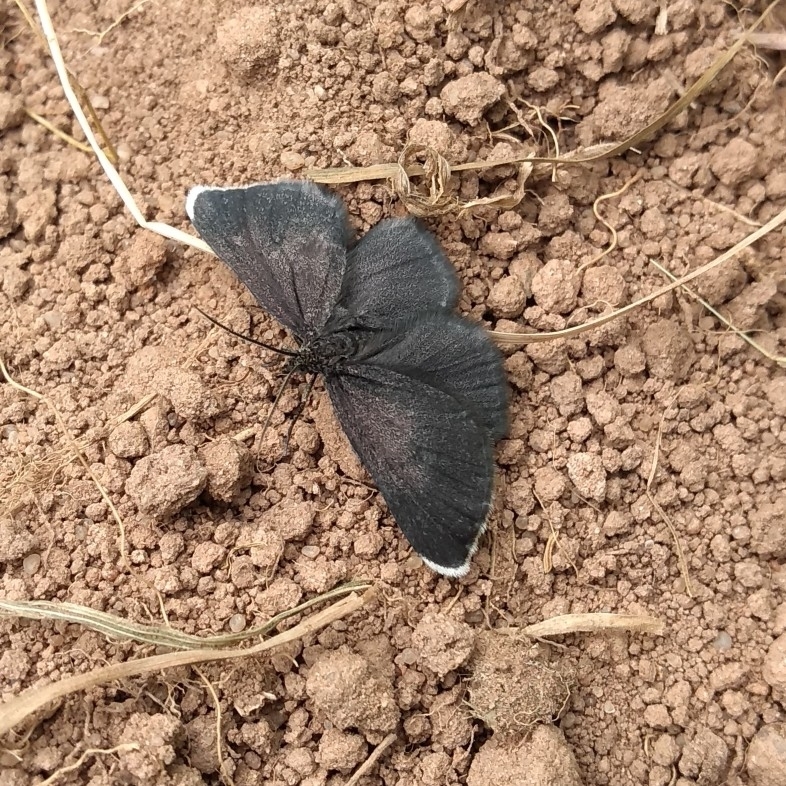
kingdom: Animalia
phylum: Arthropoda
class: Insecta
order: Lepidoptera
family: Geometridae
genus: Odezia
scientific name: Odezia atrata
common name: Chimney sweeper
